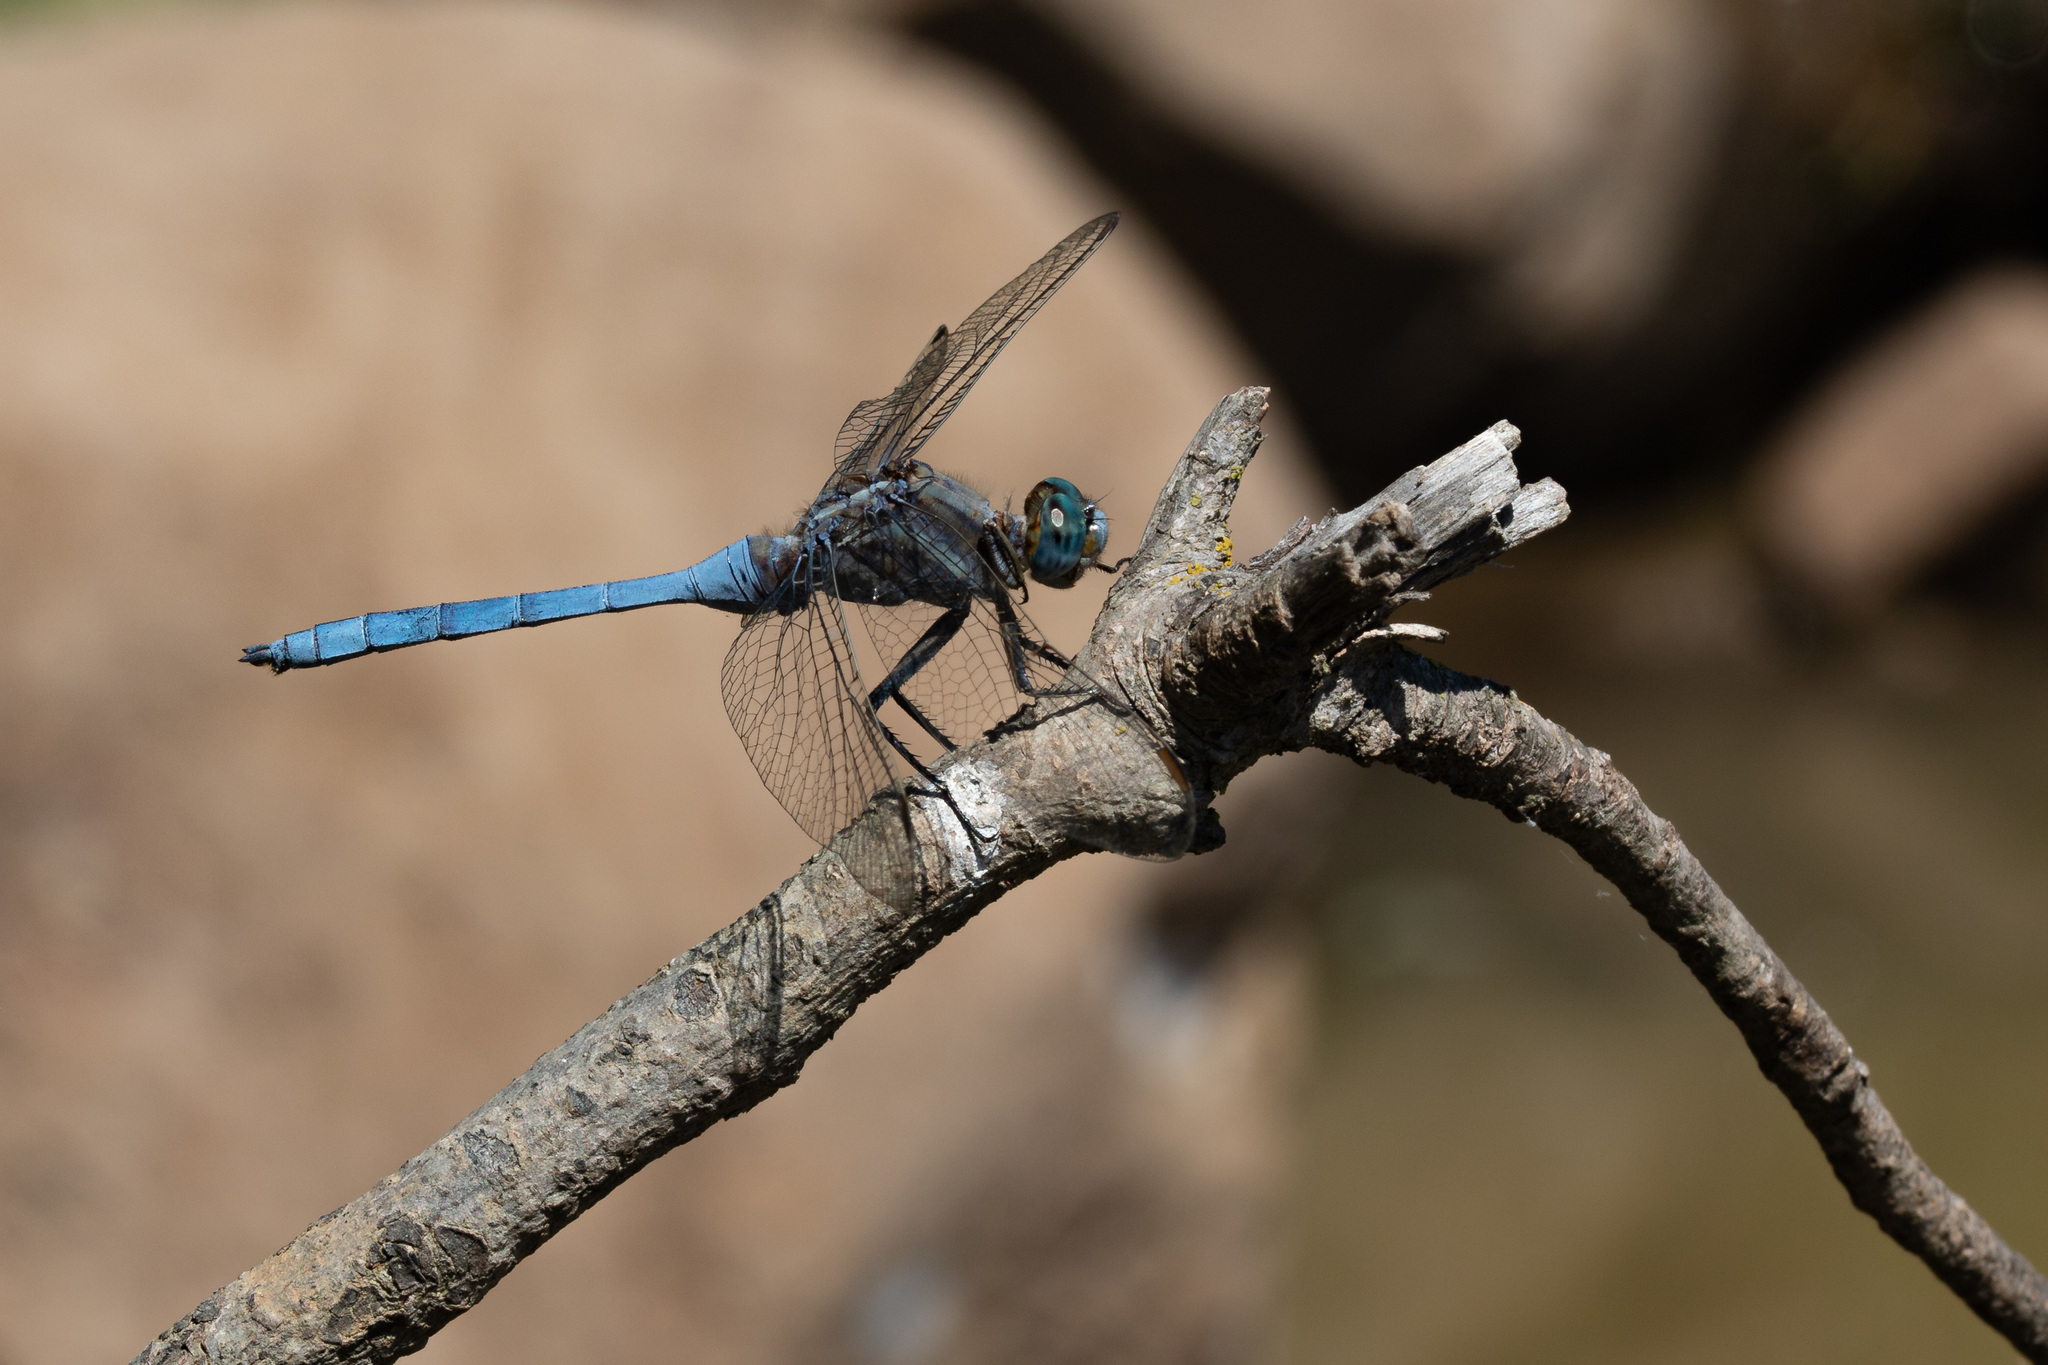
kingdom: Animalia
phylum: Arthropoda
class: Insecta
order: Odonata
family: Libellulidae
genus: Orthetrum
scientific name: Orthetrum chrysostigma
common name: Epaulet skimmer
